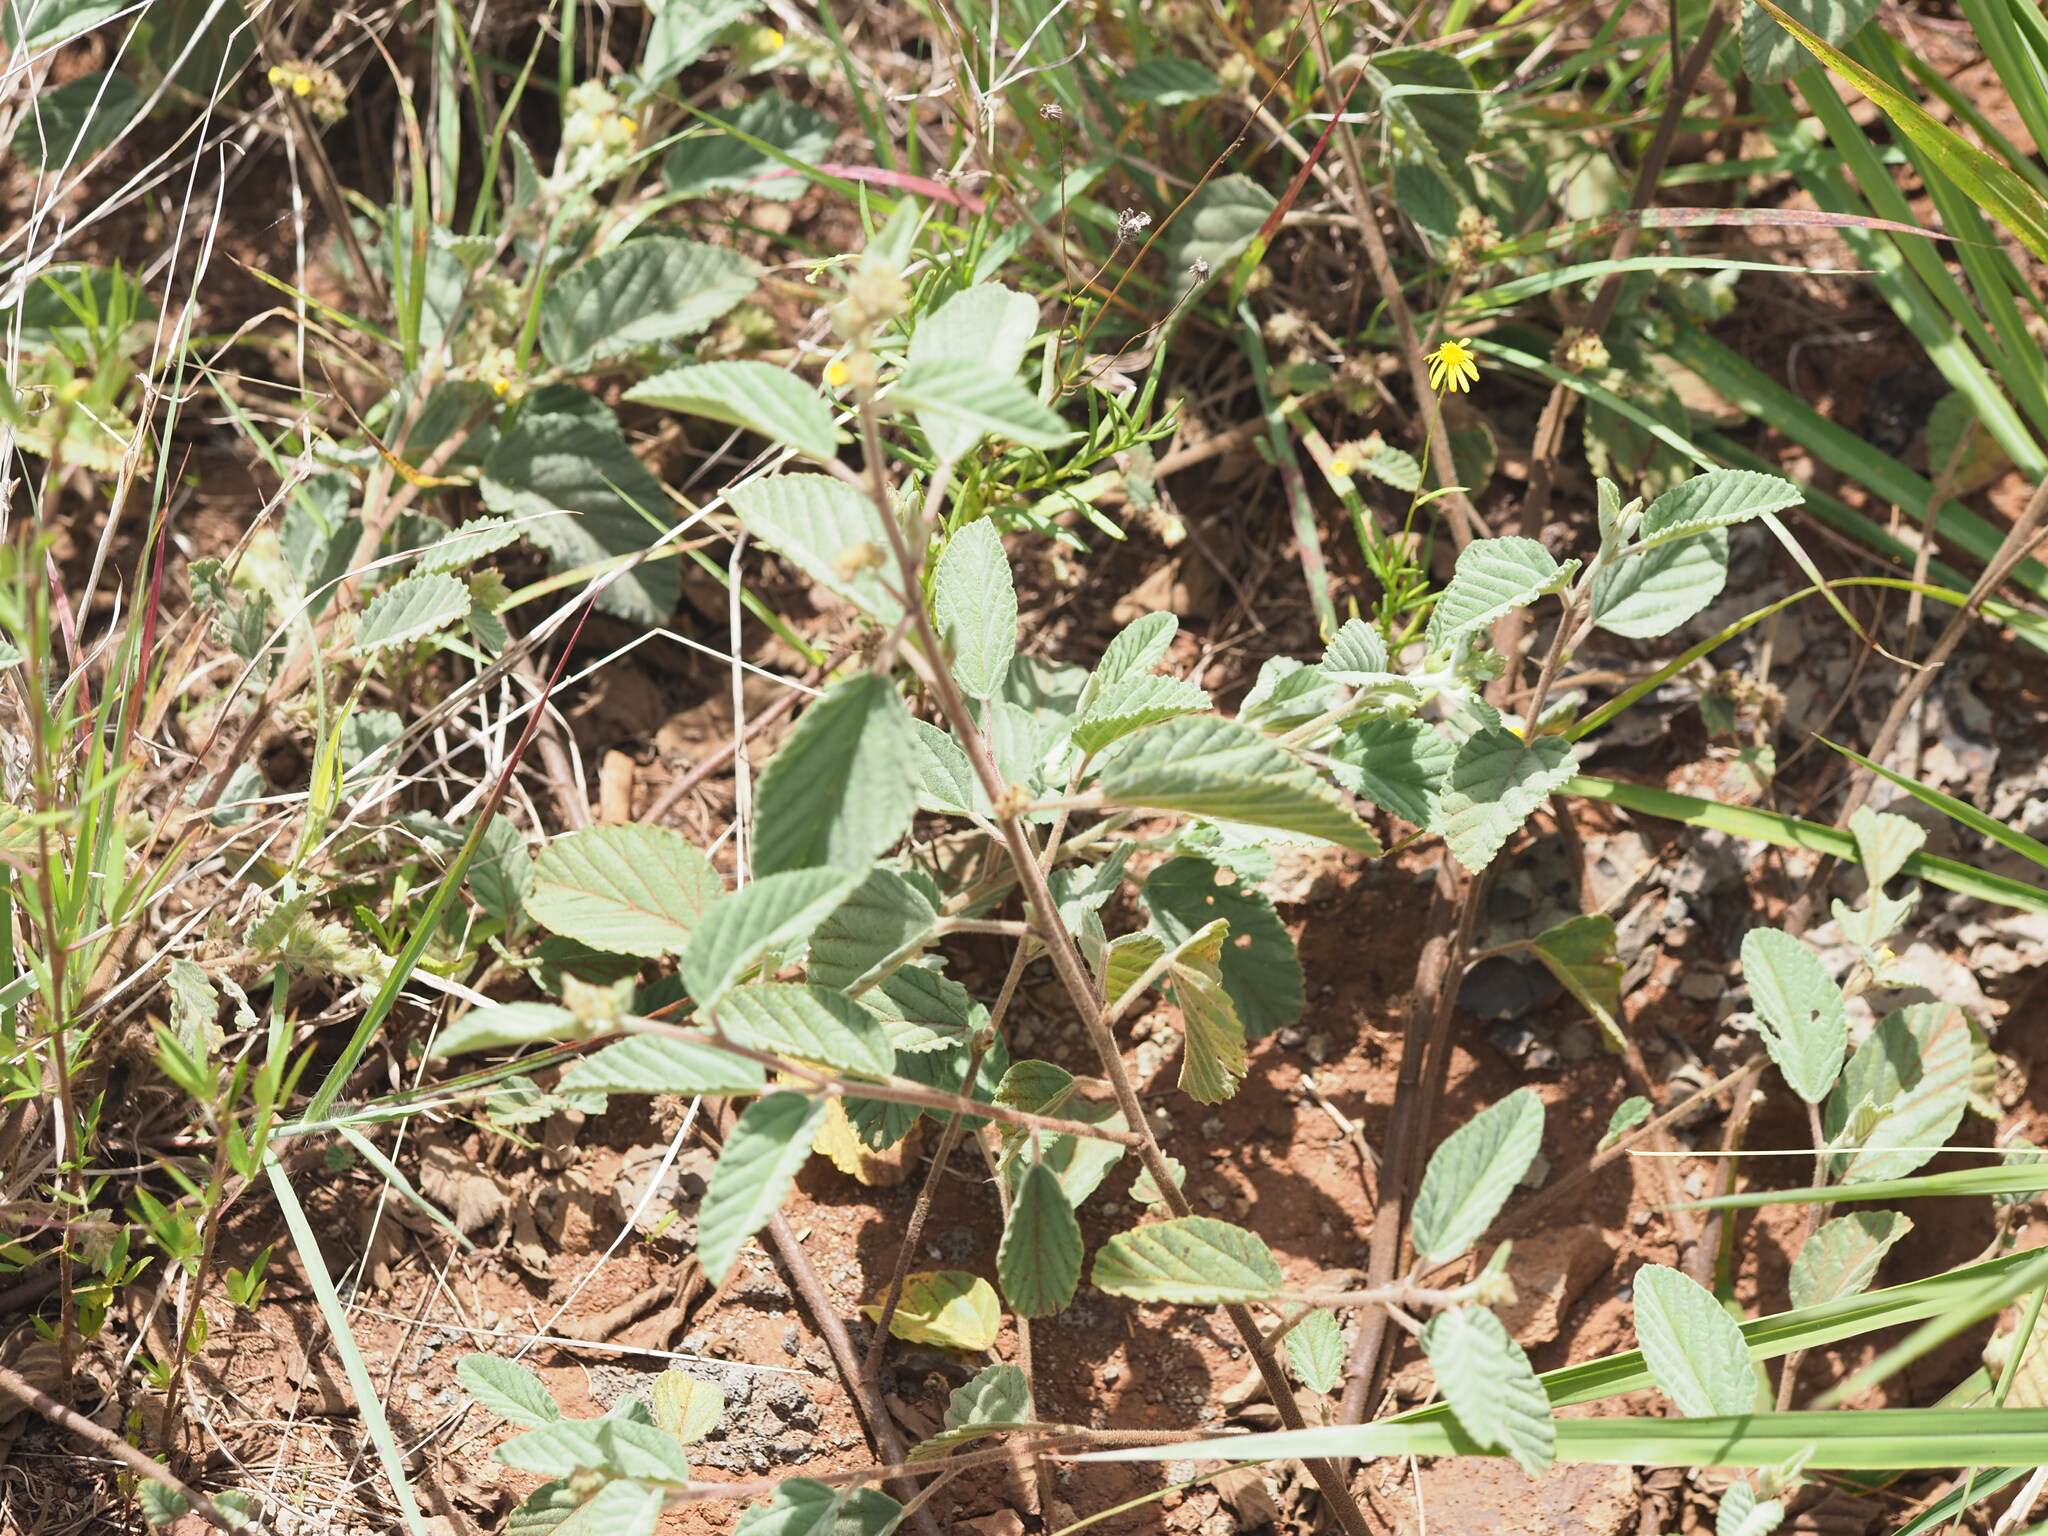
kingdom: Plantae
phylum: Tracheophyta
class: Magnoliopsida
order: Malvales
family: Malvaceae
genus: Waltheria
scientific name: Waltheria indica
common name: Leather-coat
